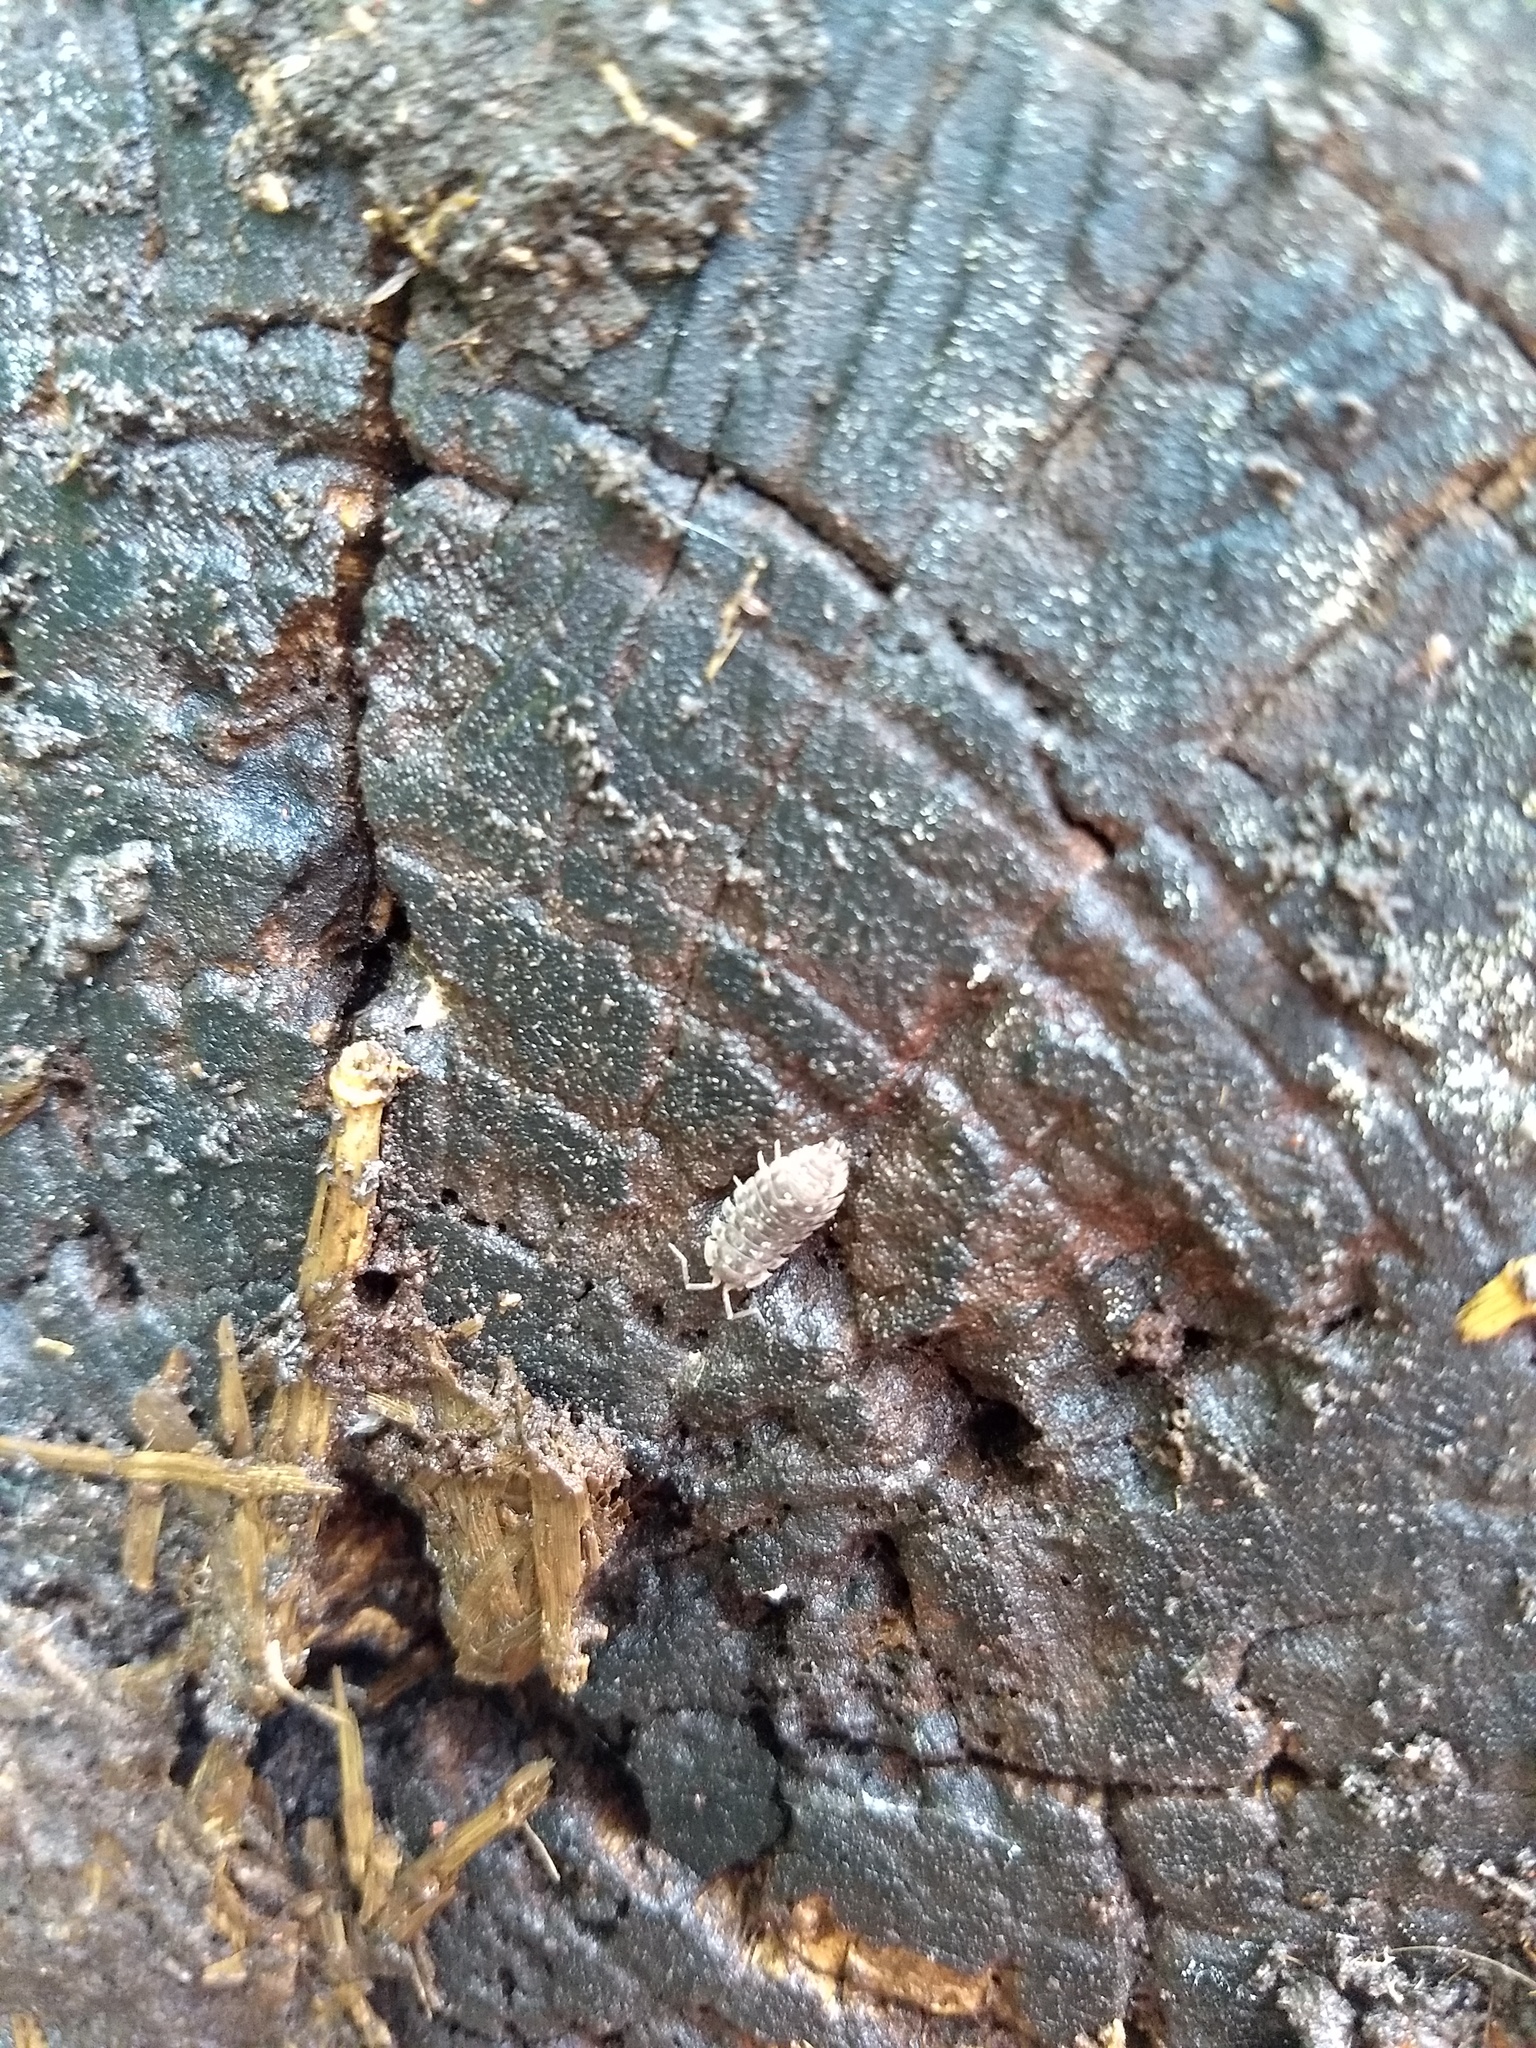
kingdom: Animalia
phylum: Arthropoda
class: Malacostraca
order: Isopoda
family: Oniscidae
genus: Oniscus
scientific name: Oniscus asellus
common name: Common shiny woodlouse
